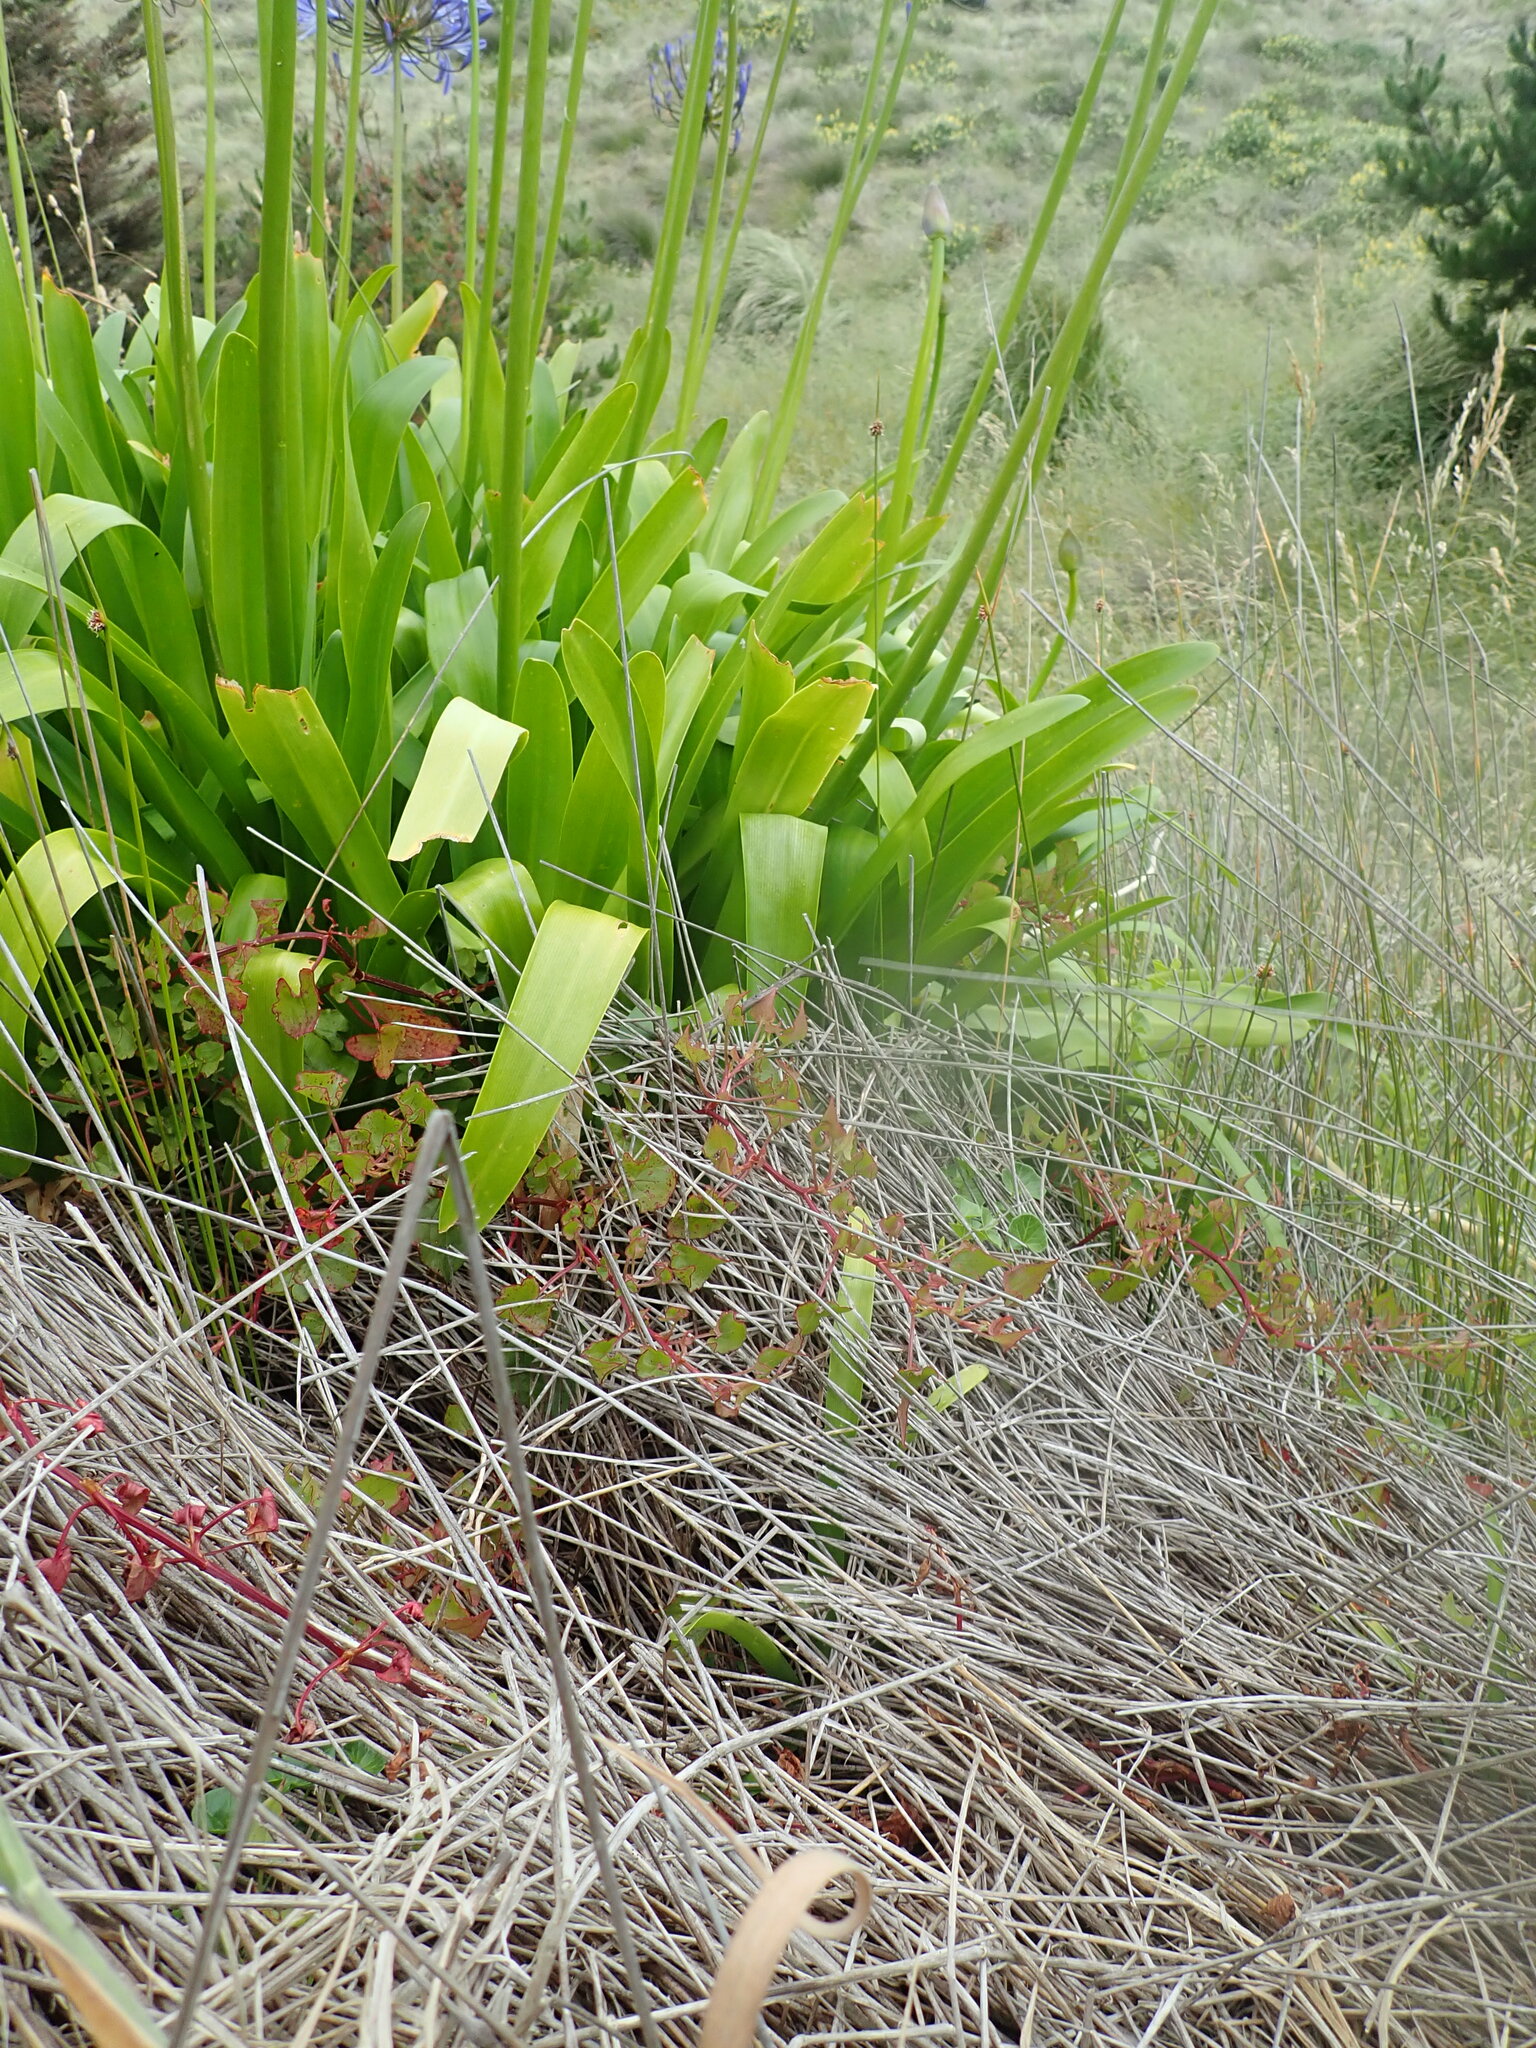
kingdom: Plantae
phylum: Tracheophyta
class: Magnoliopsida
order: Caryophyllales
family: Polygonaceae
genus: Rumex
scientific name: Rumex sagittatus
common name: Climbing dock
